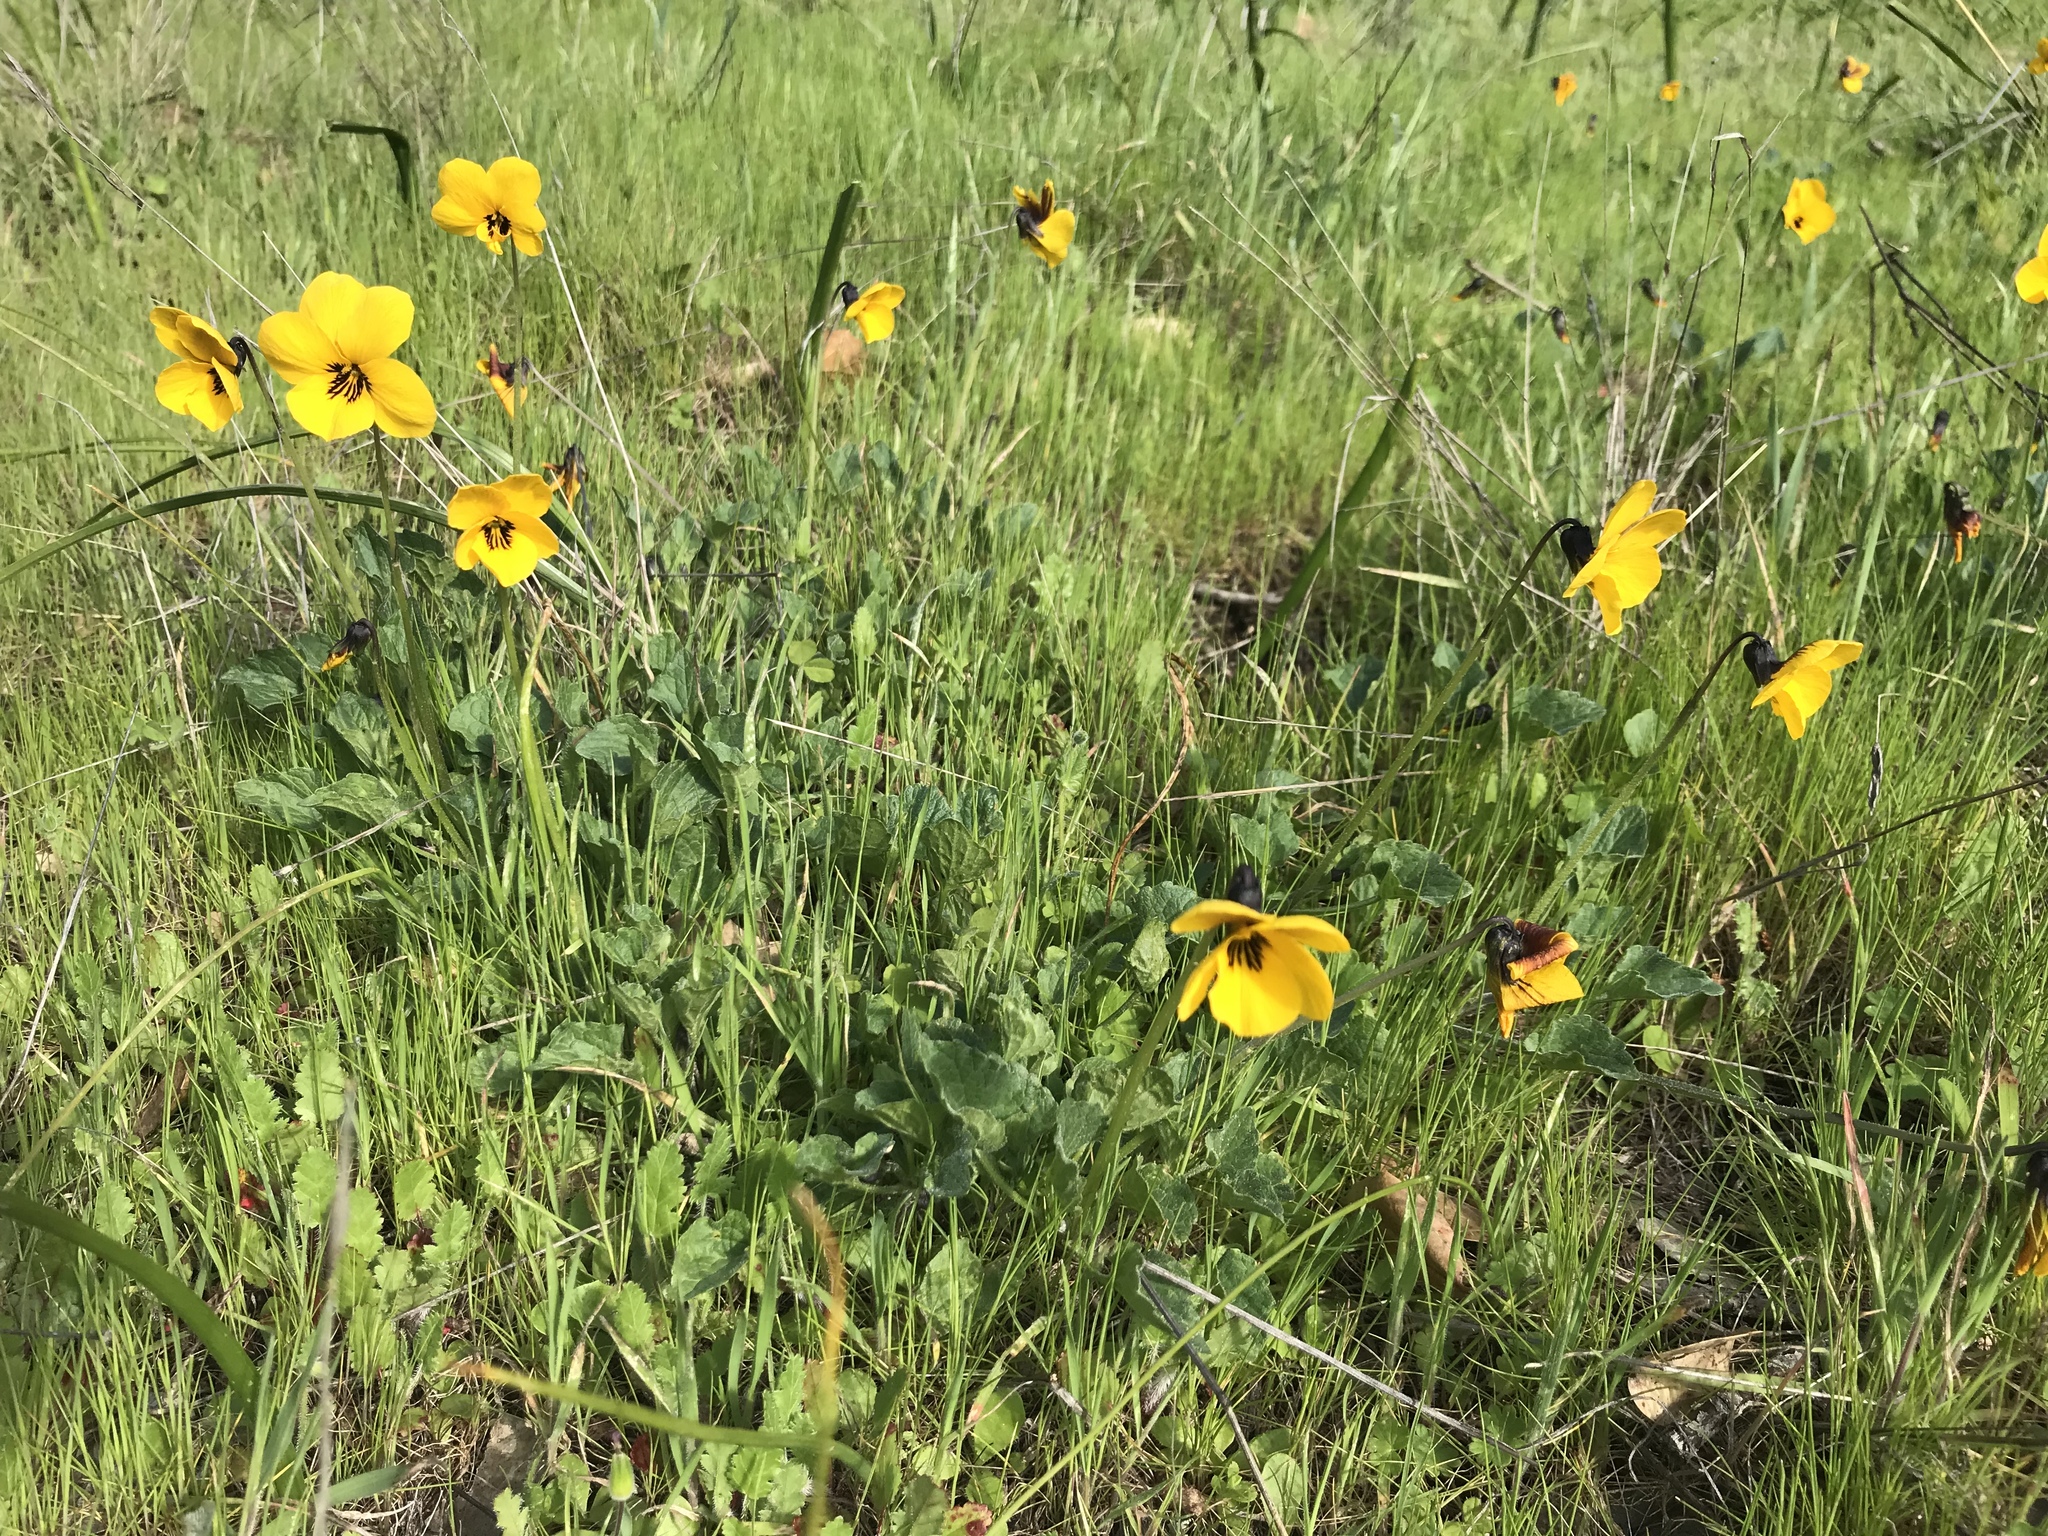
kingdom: Plantae
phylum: Tracheophyta
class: Magnoliopsida
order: Malpighiales
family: Violaceae
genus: Viola
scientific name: Viola pedunculata
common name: California golden violet
